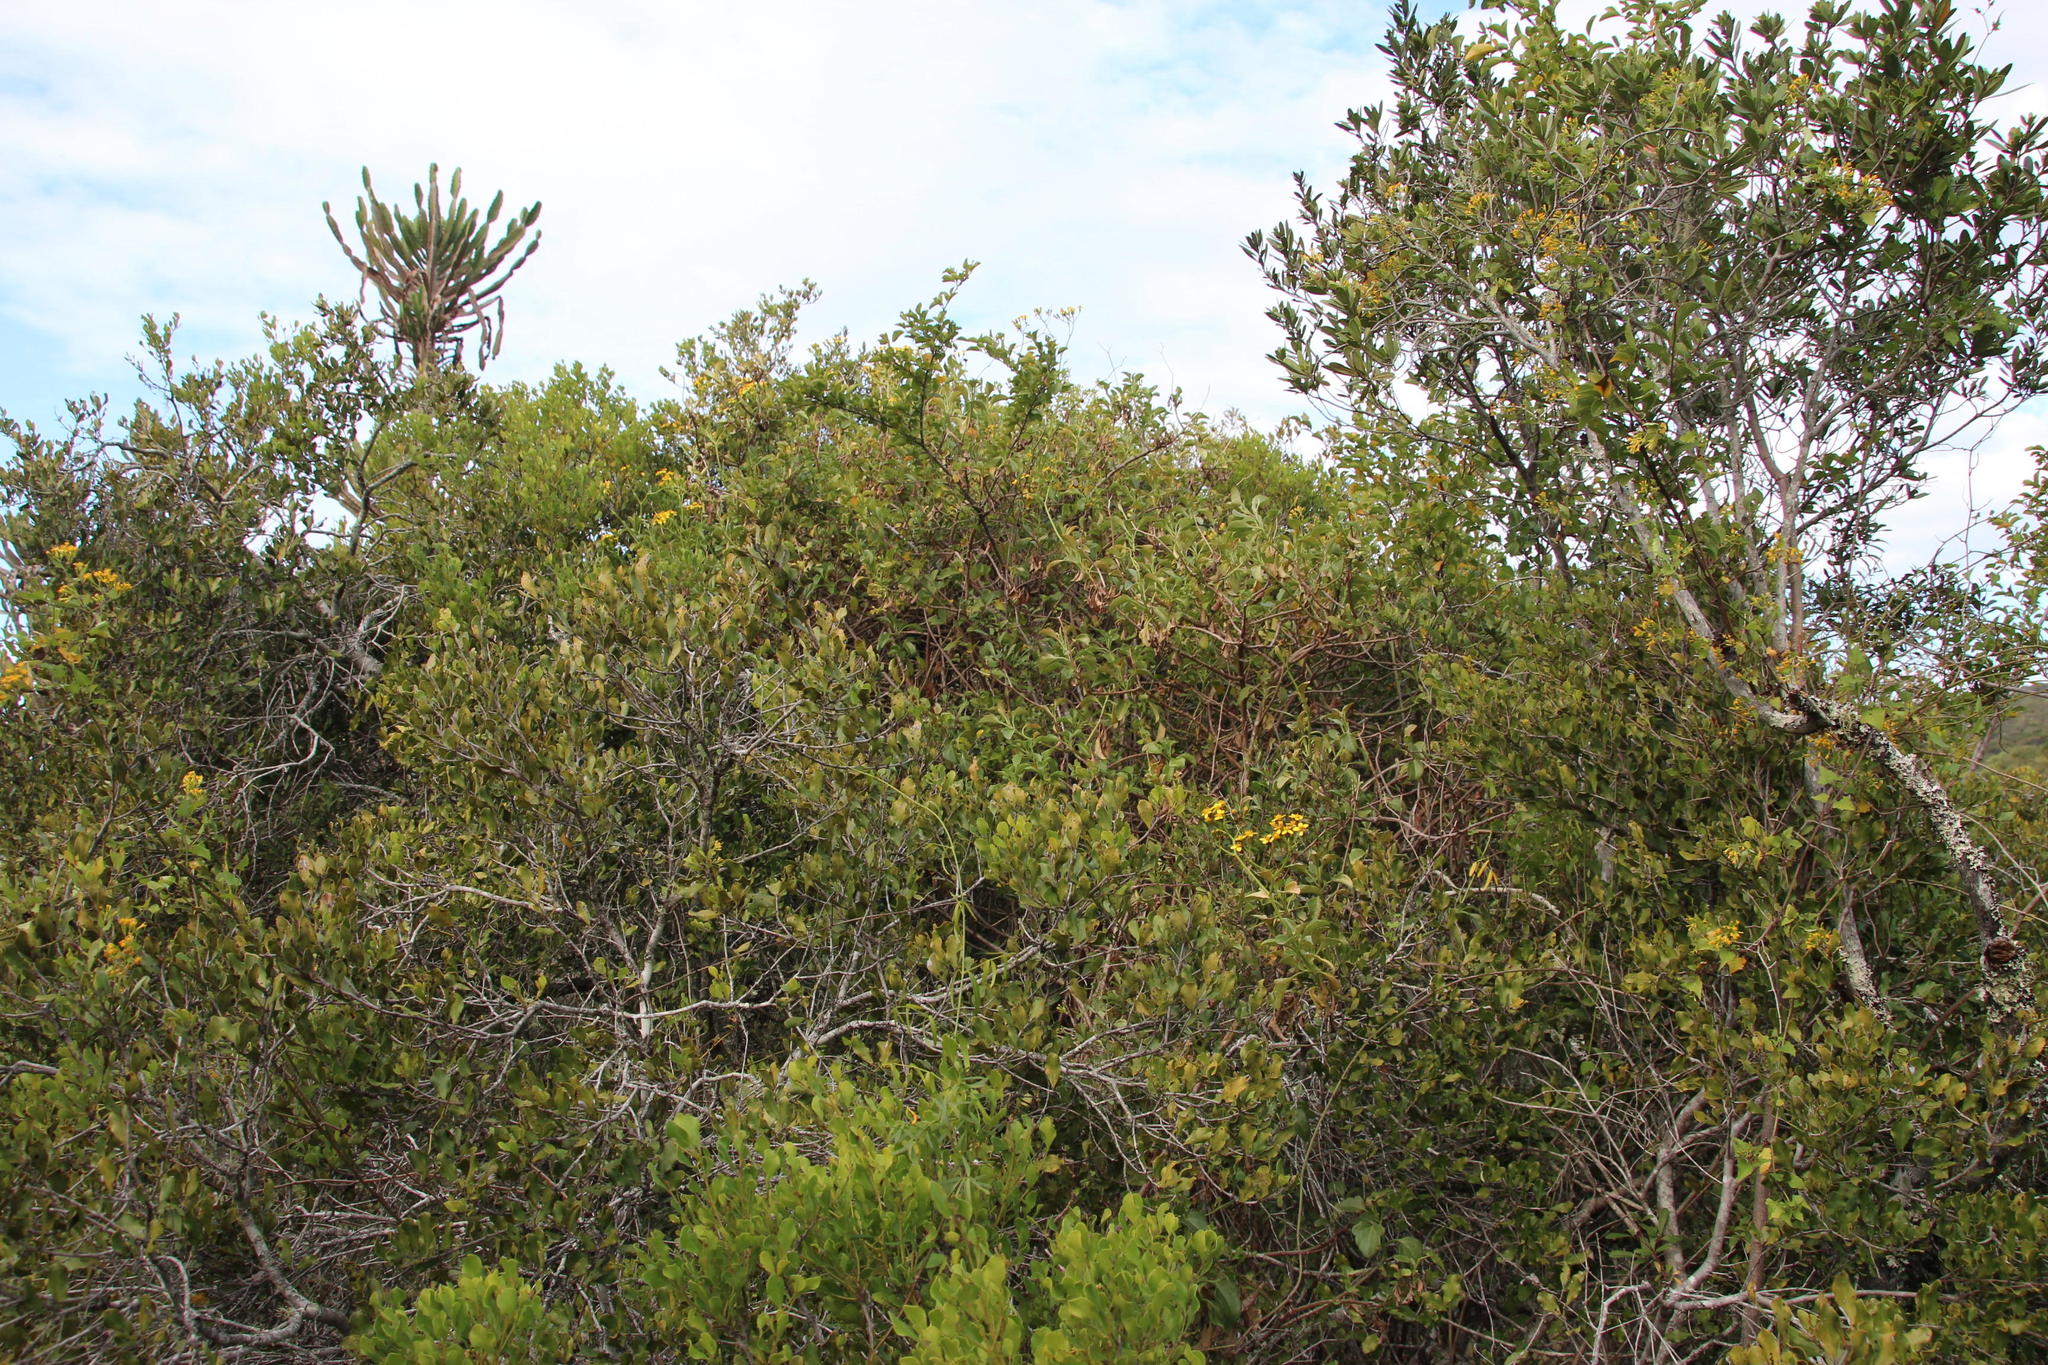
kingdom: Plantae
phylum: Tracheophyta
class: Magnoliopsida
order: Asterales
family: Asteraceae
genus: Senecio
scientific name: Senecio angulatus
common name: Climbing groundsel
